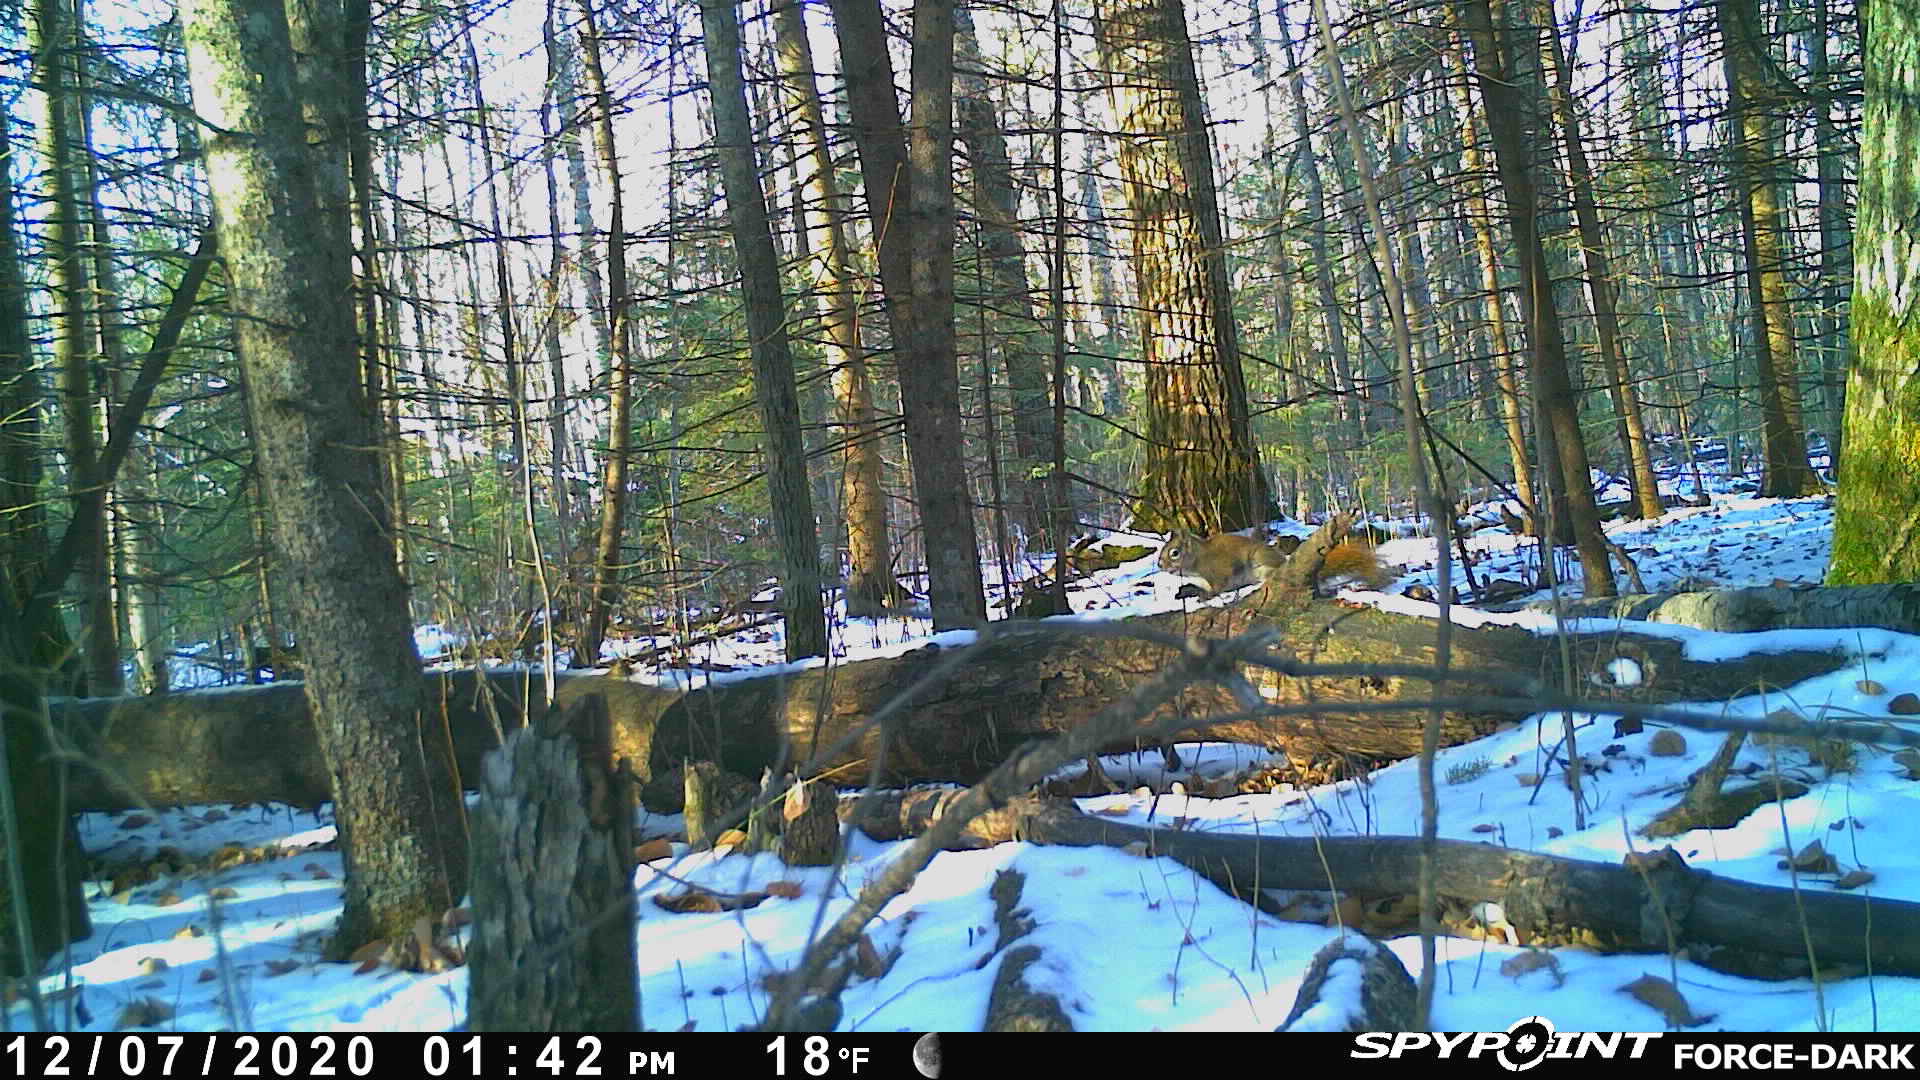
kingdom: Animalia
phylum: Chordata
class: Mammalia
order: Rodentia
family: Sciuridae
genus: Tamiasciurus
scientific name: Tamiasciurus hudsonicus
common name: Red squirrel
